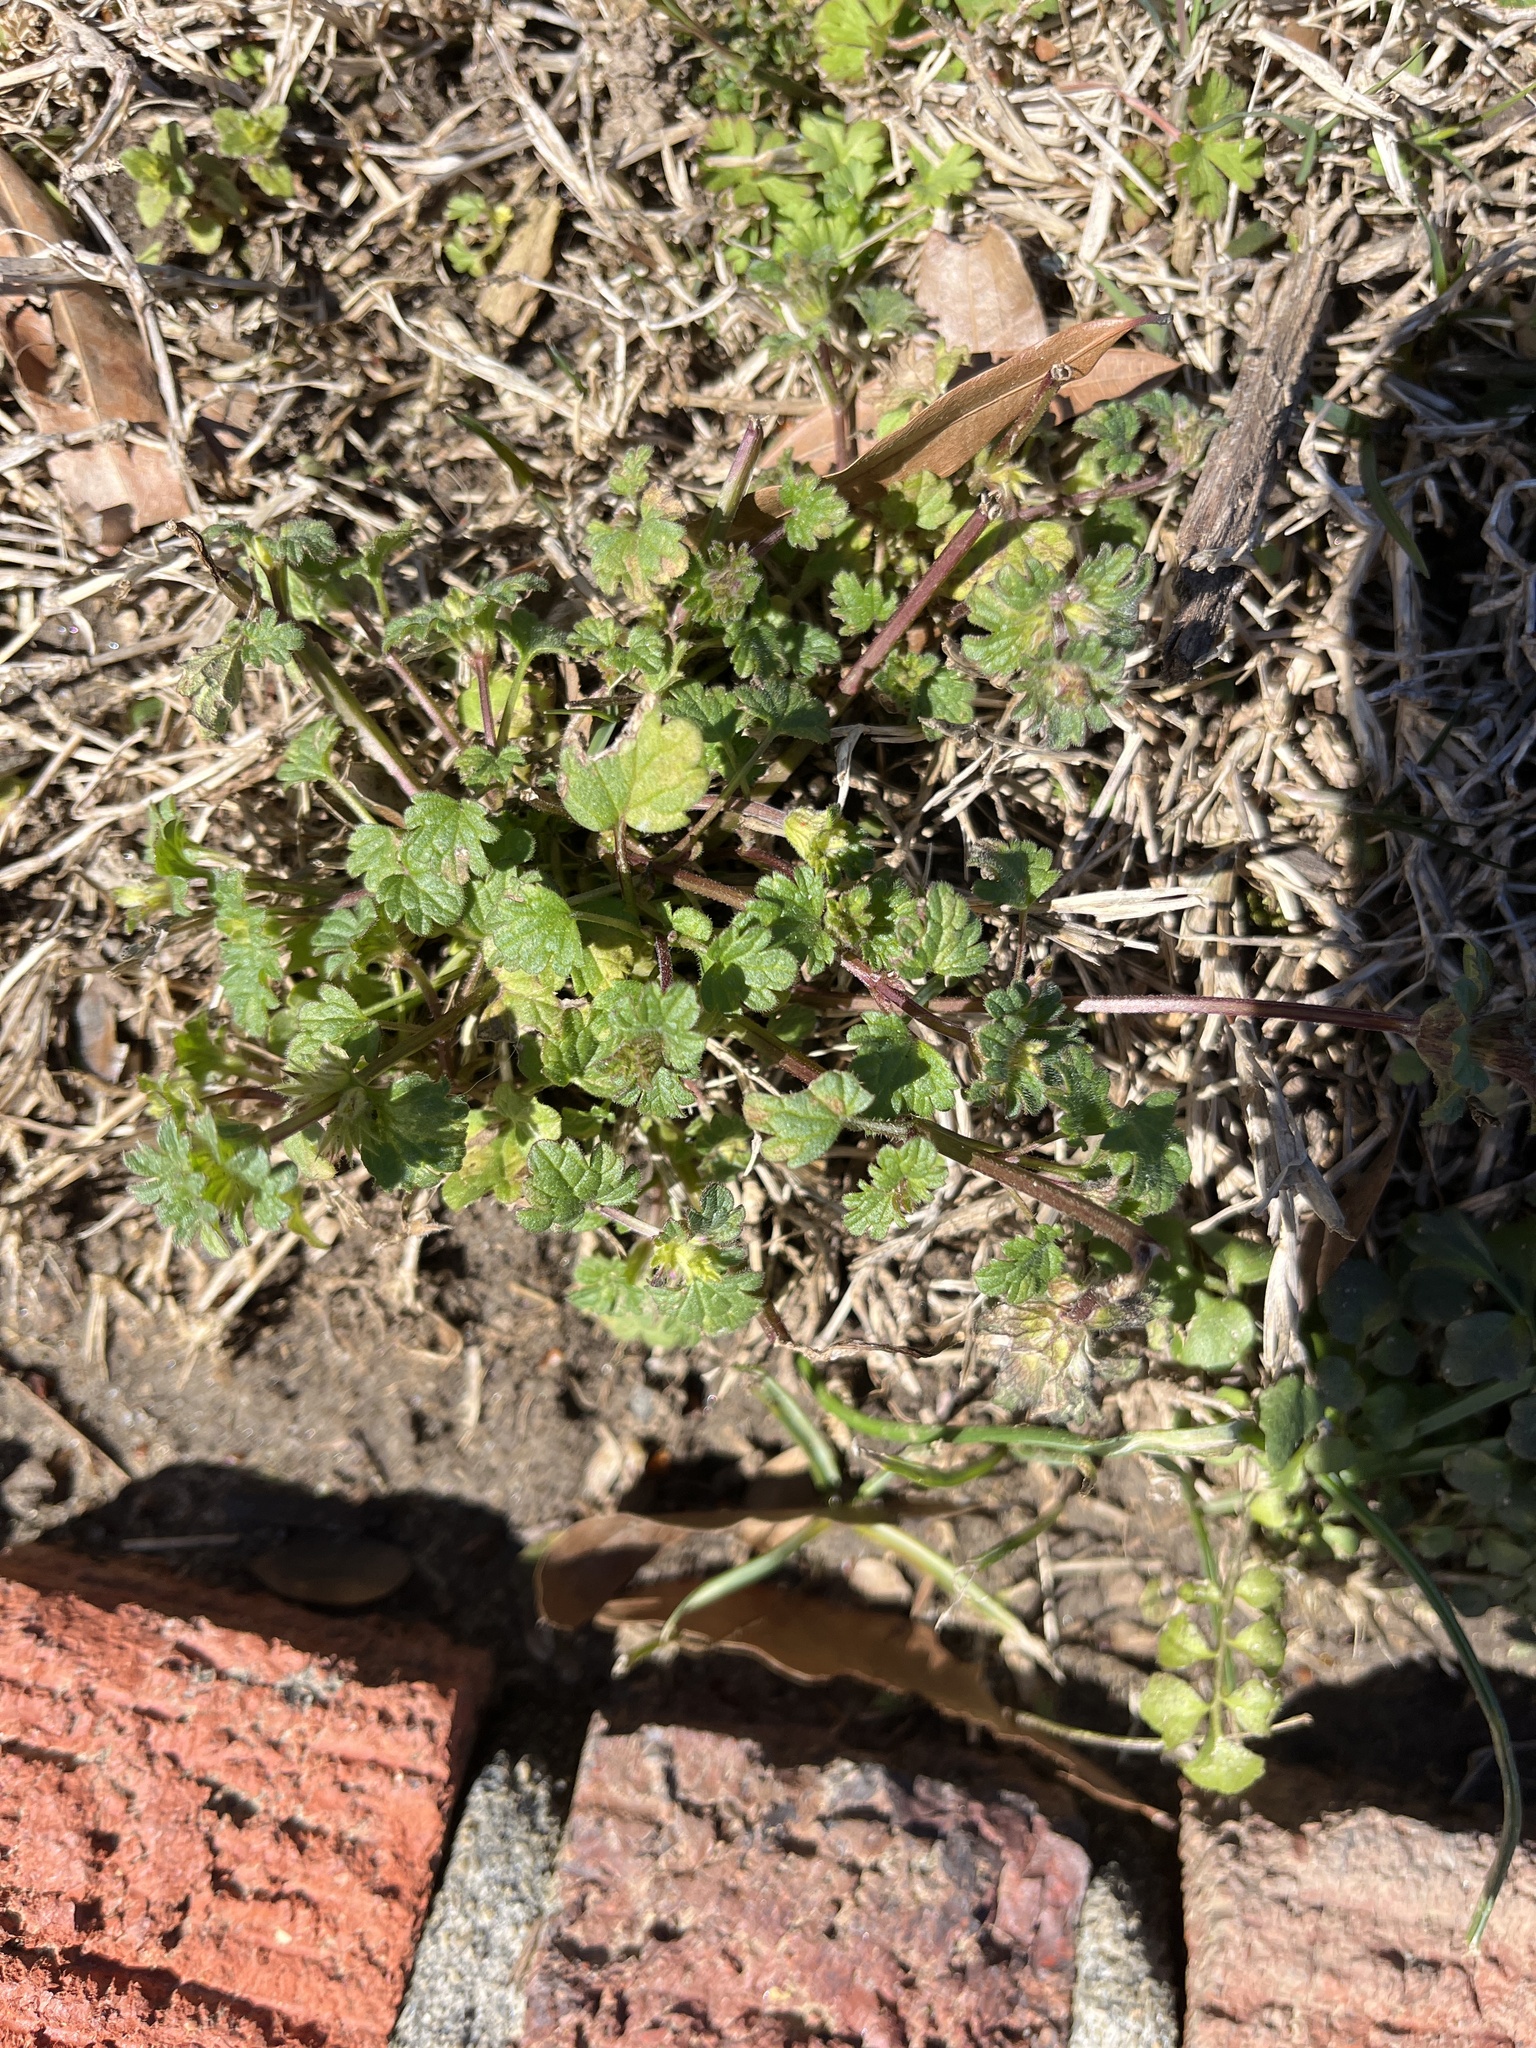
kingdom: Plantae
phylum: Tracheophyta
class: Magnoliopsida
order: Lamiales
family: Lamiaceae
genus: Lamium
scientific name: Lamium amplexicaule
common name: Henbit dead-nettle
